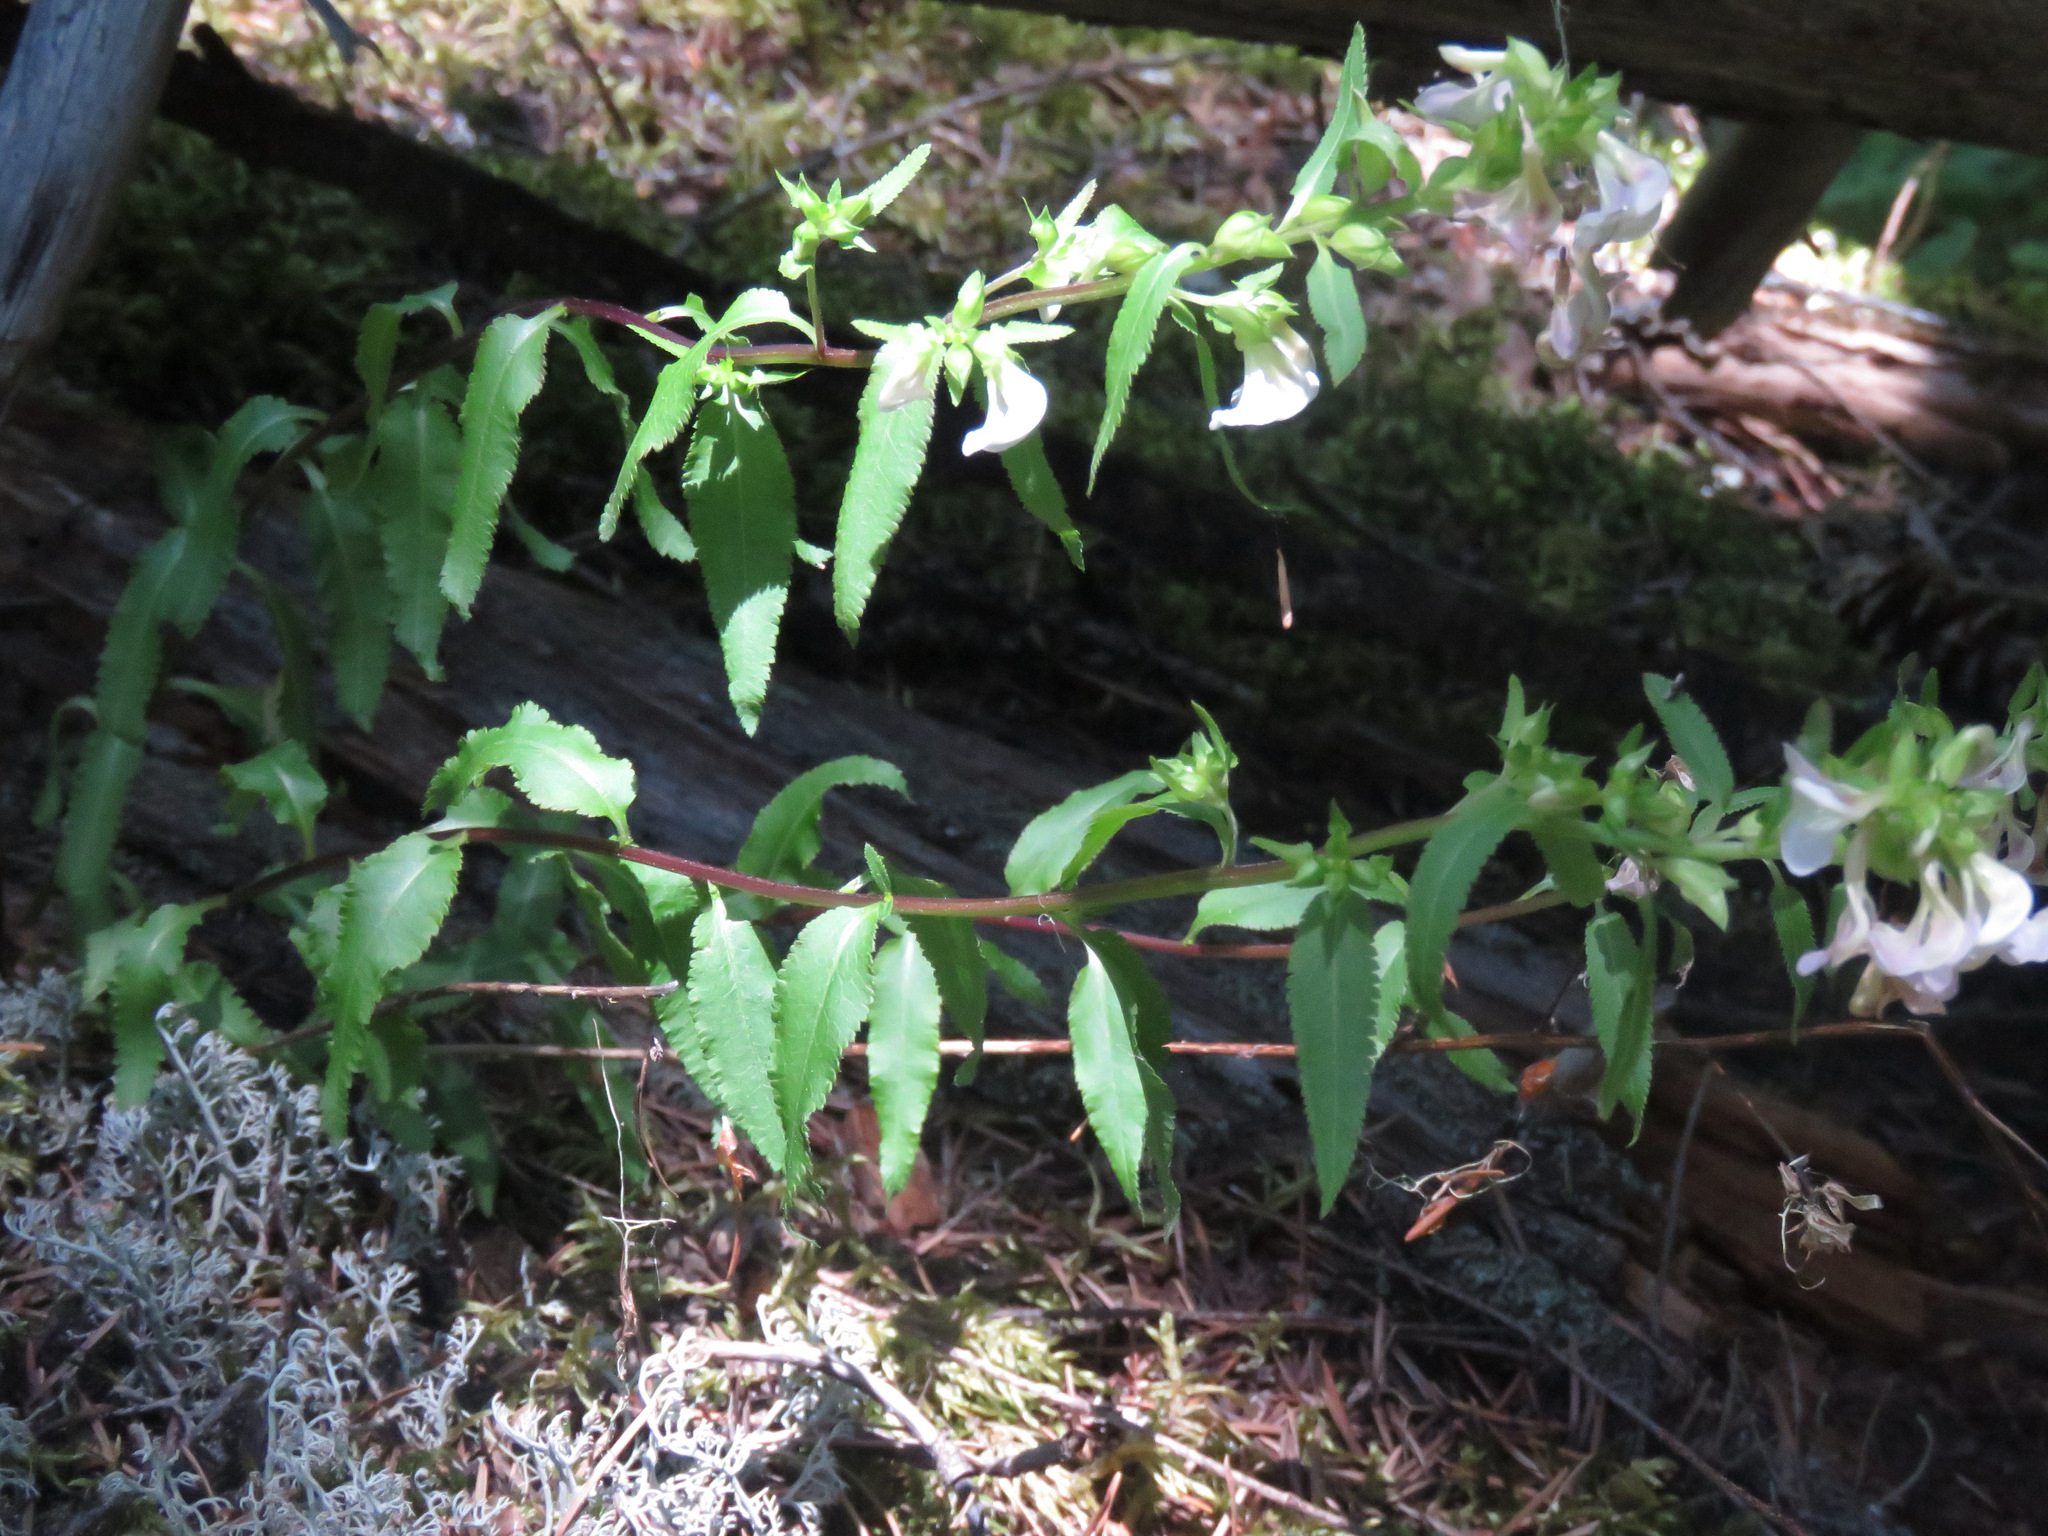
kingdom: Plantae
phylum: Tracheophyta
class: Magnoliopsida
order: Lamiales
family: Orobanchaceae
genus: Pedicularis
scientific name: Pedicularis racemosa
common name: Leafy lousewort
